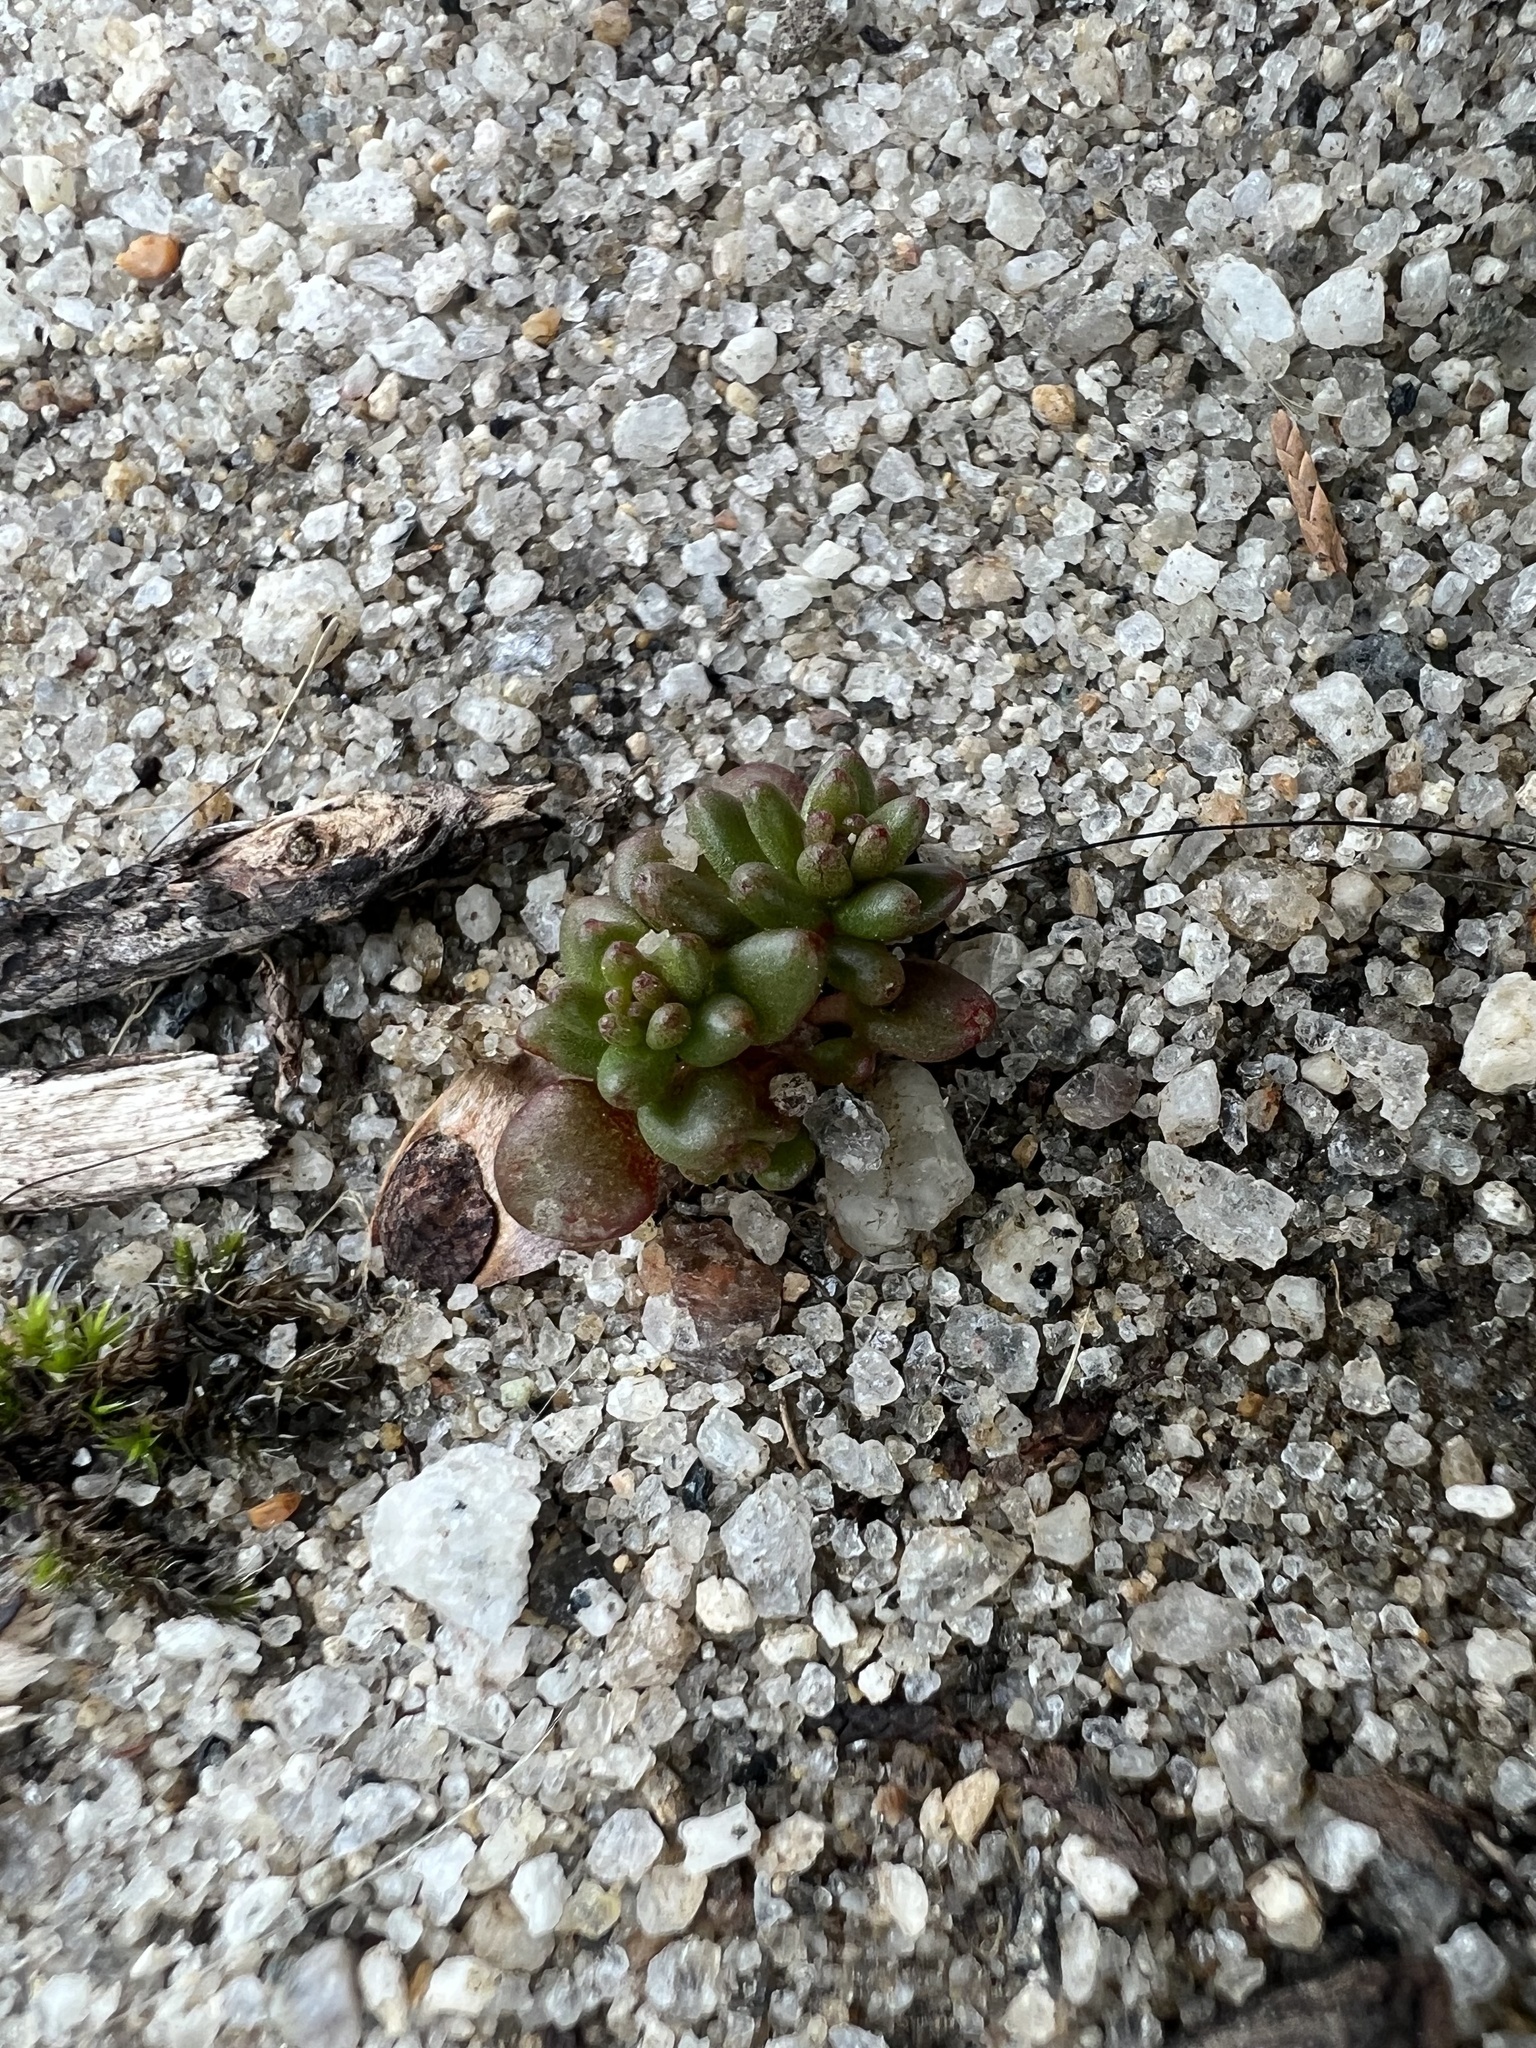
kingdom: Plantae
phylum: Tracheophyta
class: Magnoliopsida
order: Saxifragales
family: Crassulaceae
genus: Sedum
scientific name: Sedum smallii
